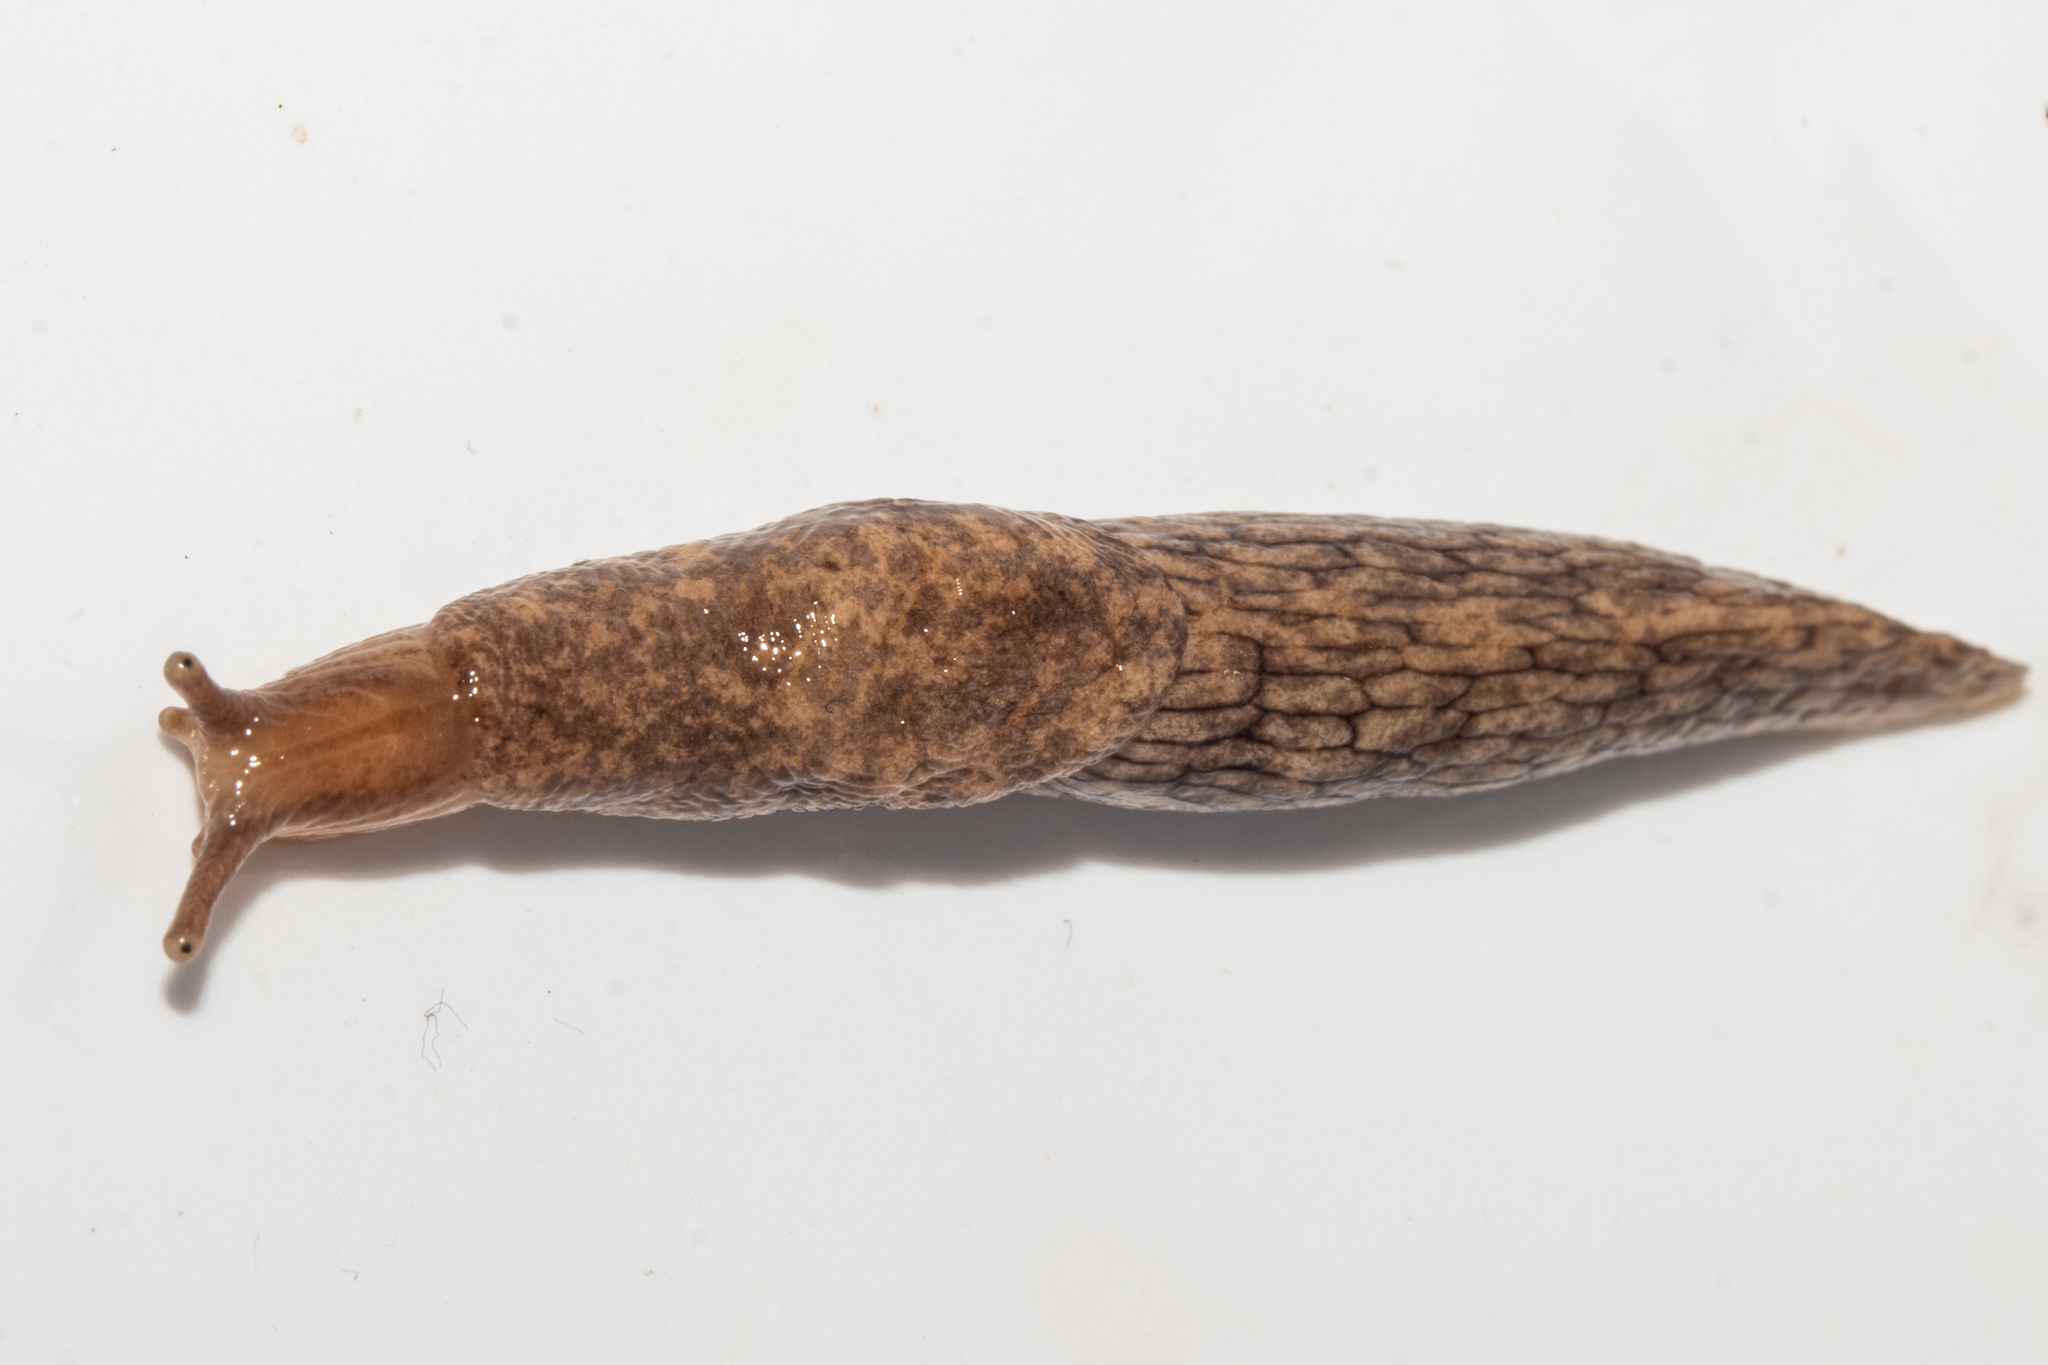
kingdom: Animalia
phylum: Mollusca
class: Gastropoda
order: Stylommatophora
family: Agriolimacidae
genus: Deroceras
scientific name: Deroceras reticulatum
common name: Gray field slug
